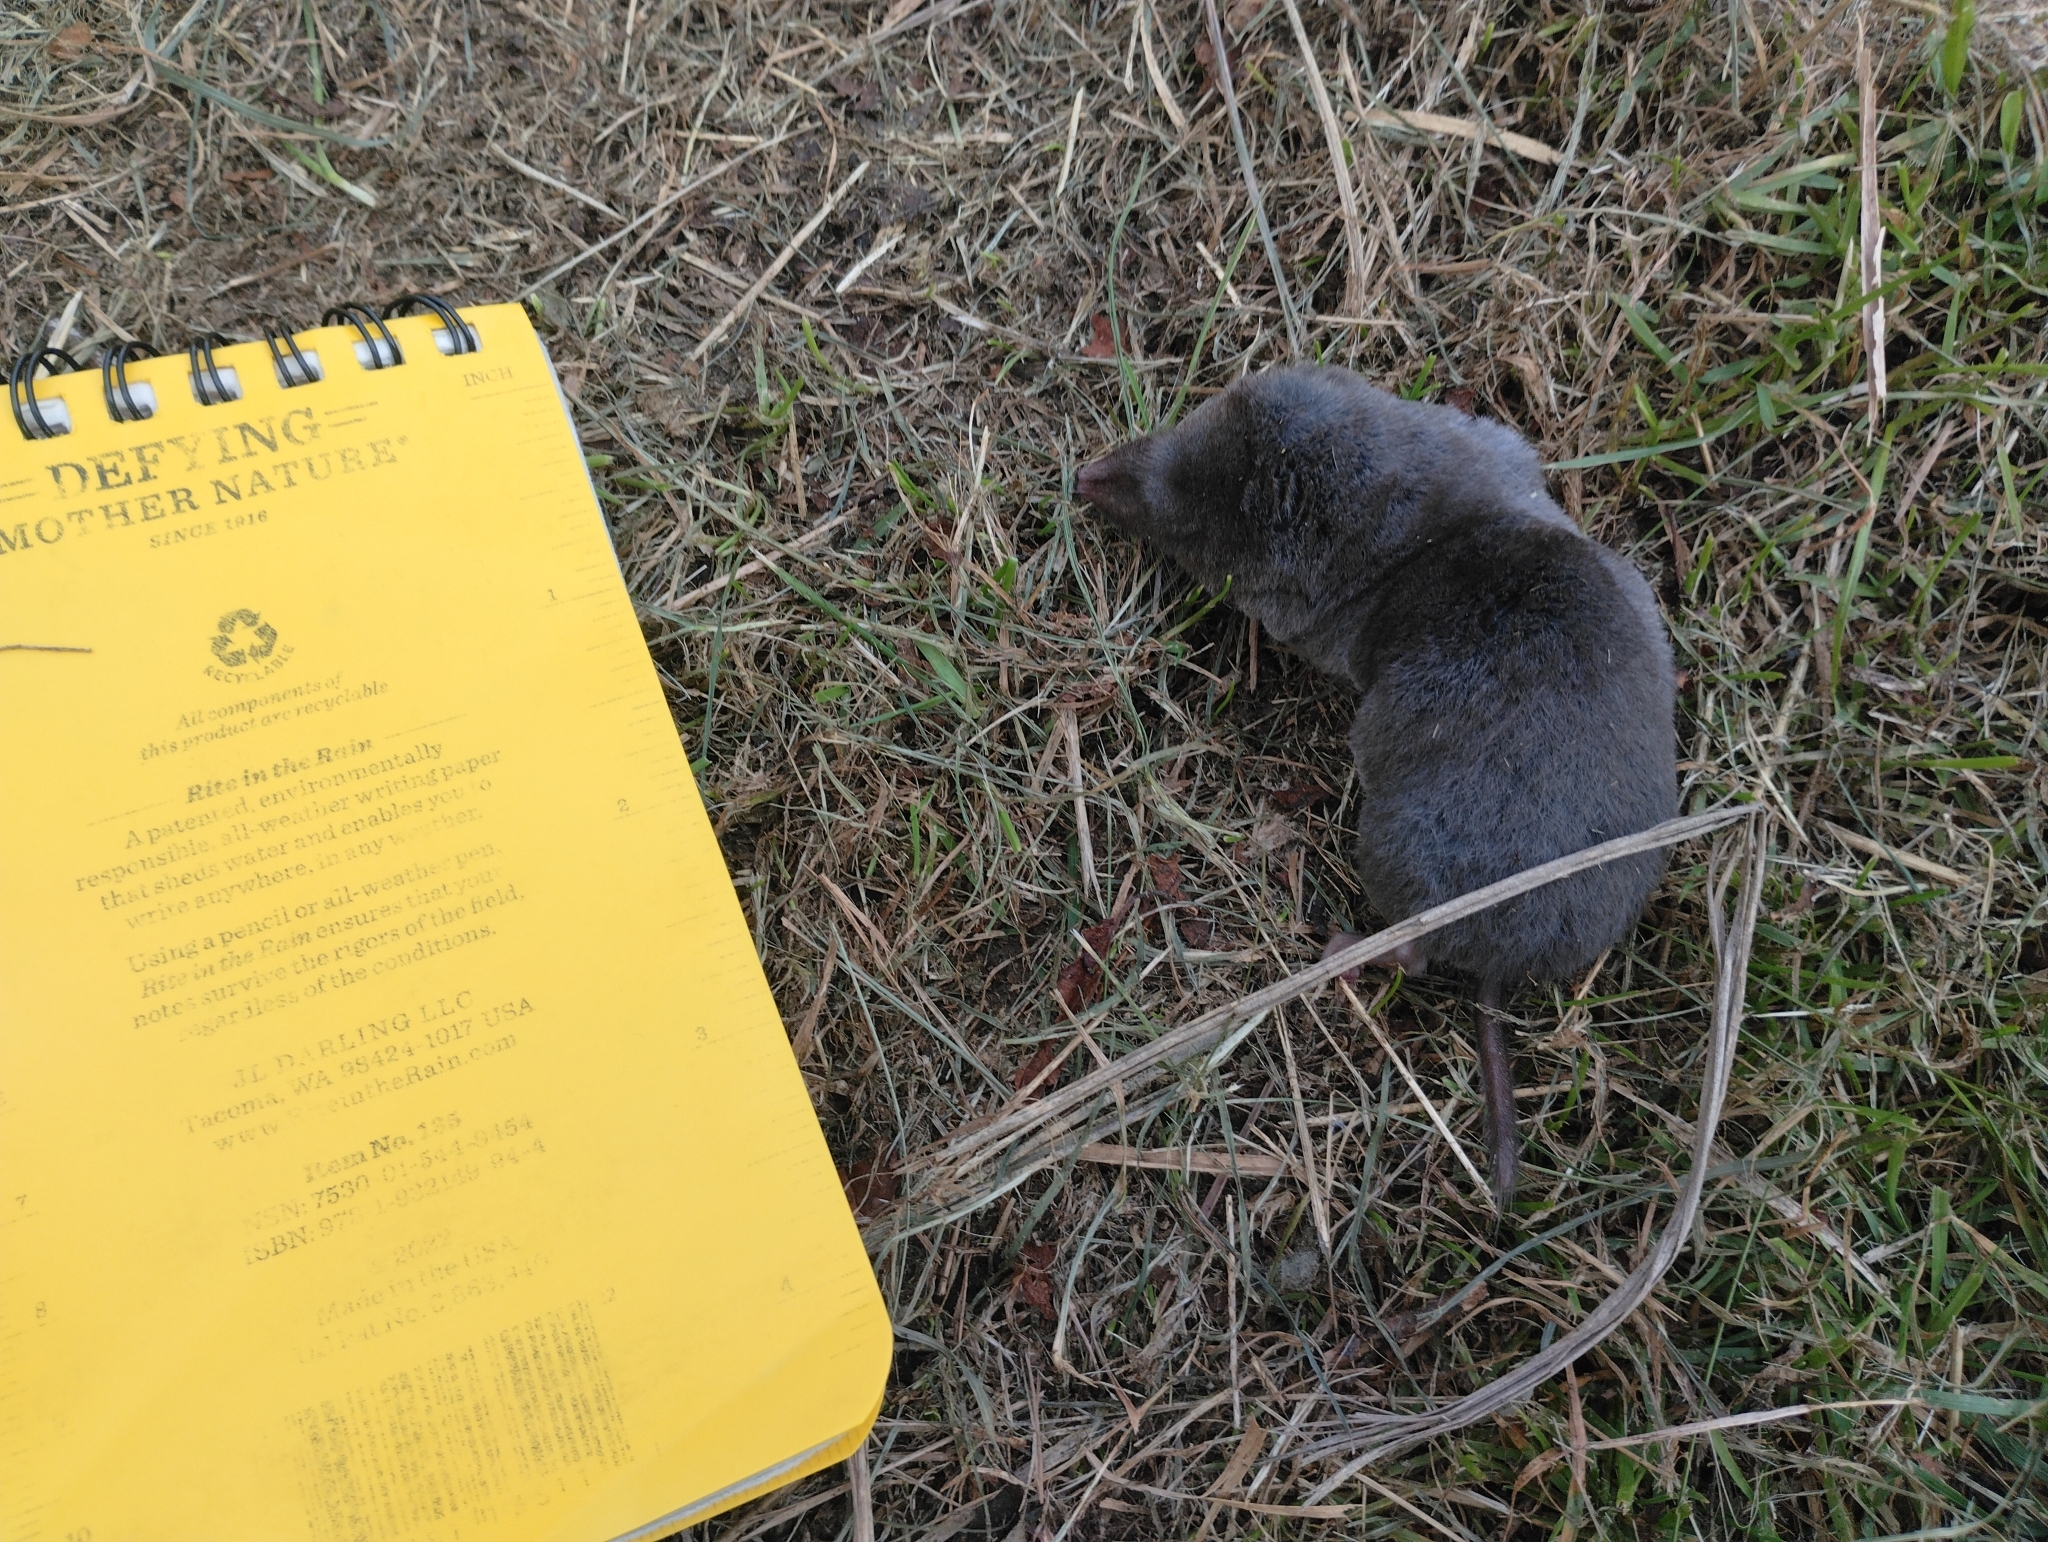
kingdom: Animalia
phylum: Chordata
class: Mammalia
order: Soricomorpha
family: Soricidae
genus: Blarina
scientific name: Blarina brevicauda
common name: Northern short-tailed shrew
